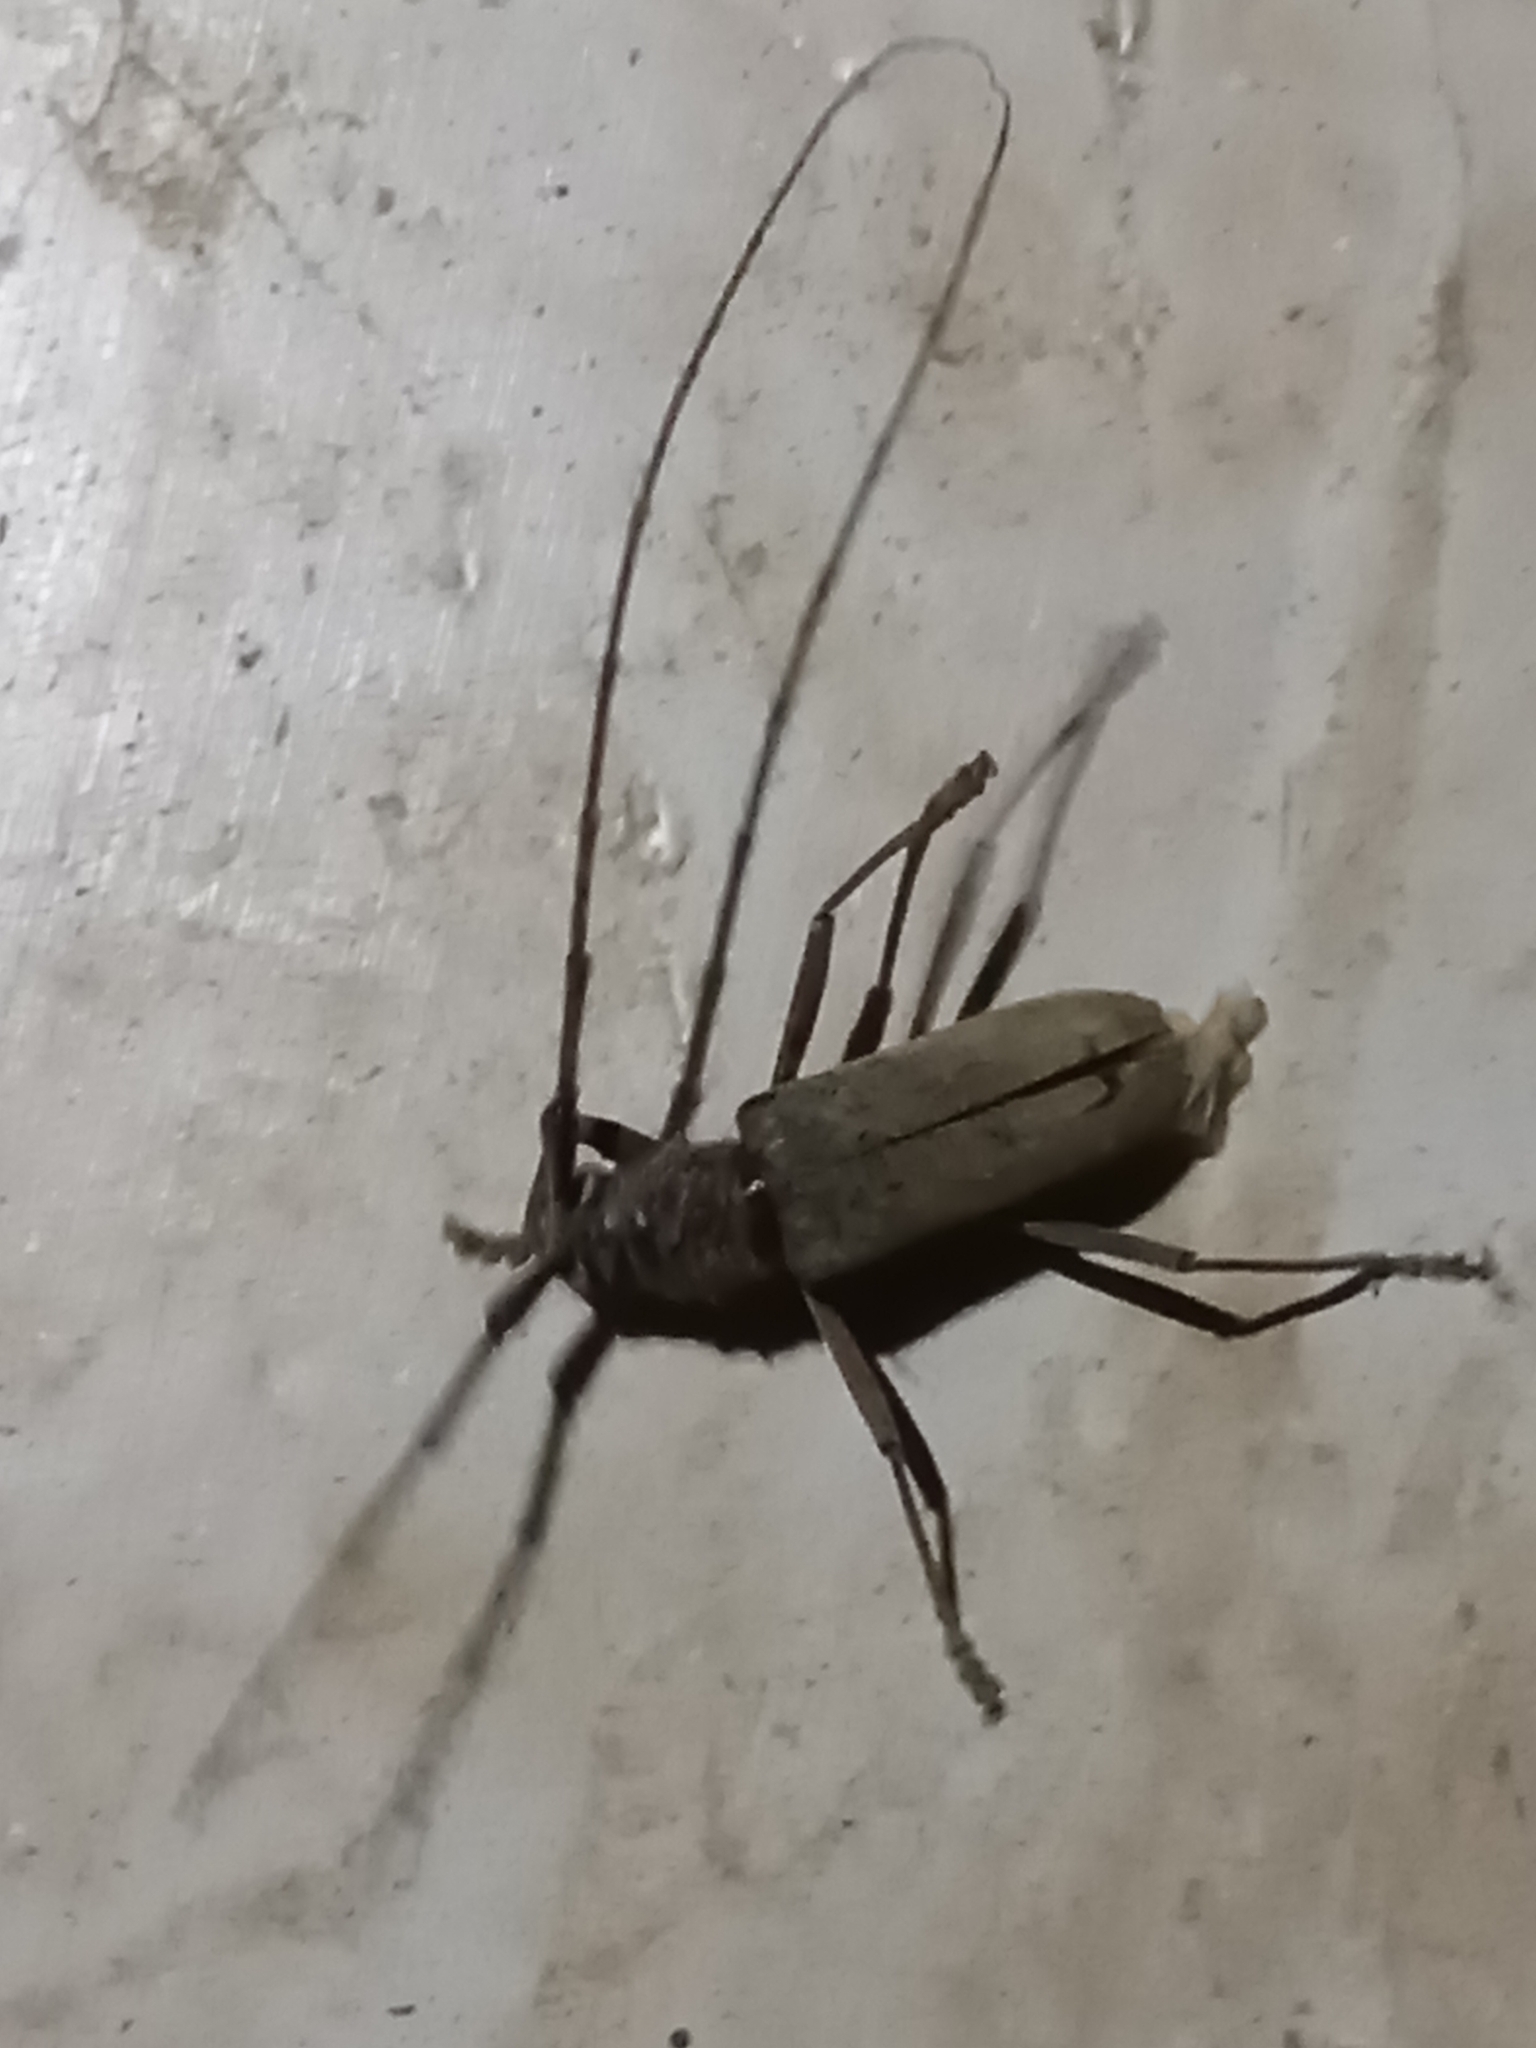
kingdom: Animalia
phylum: Arthropoda
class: Insecta
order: Coleoptera
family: Cerambycidae
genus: Susuacanga
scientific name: Susuacanga stigmatica
